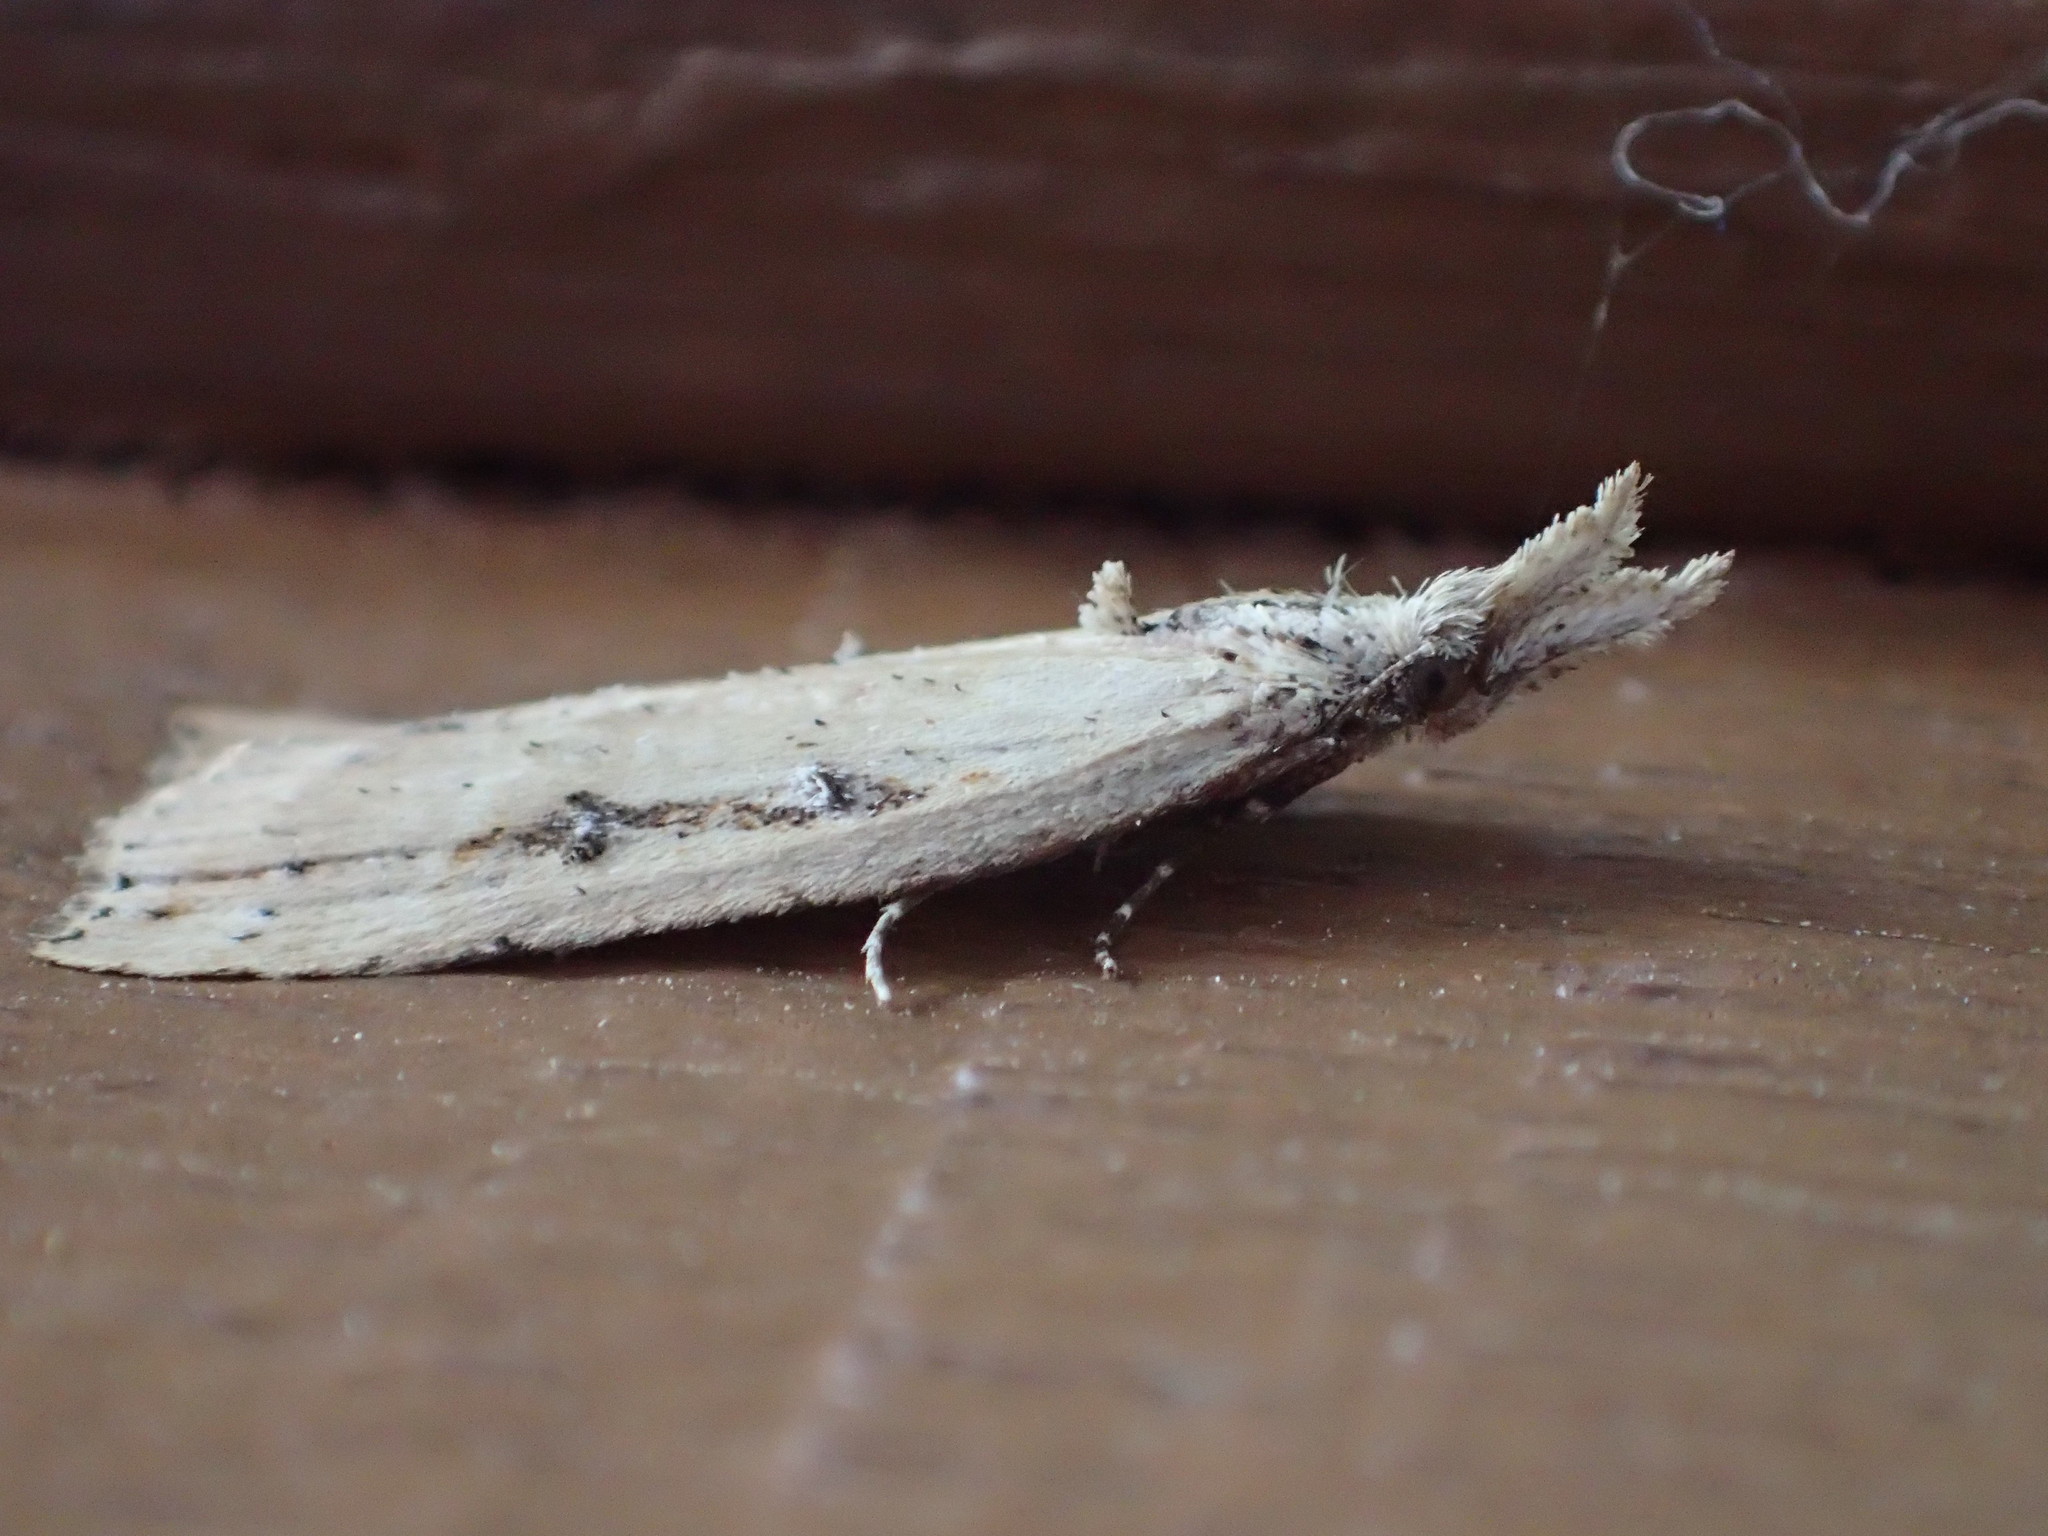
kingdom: Animalia
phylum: Arthropoda
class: Insecta
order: Lepidoptera
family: Erebidae
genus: Hypena
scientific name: Hypena californica
